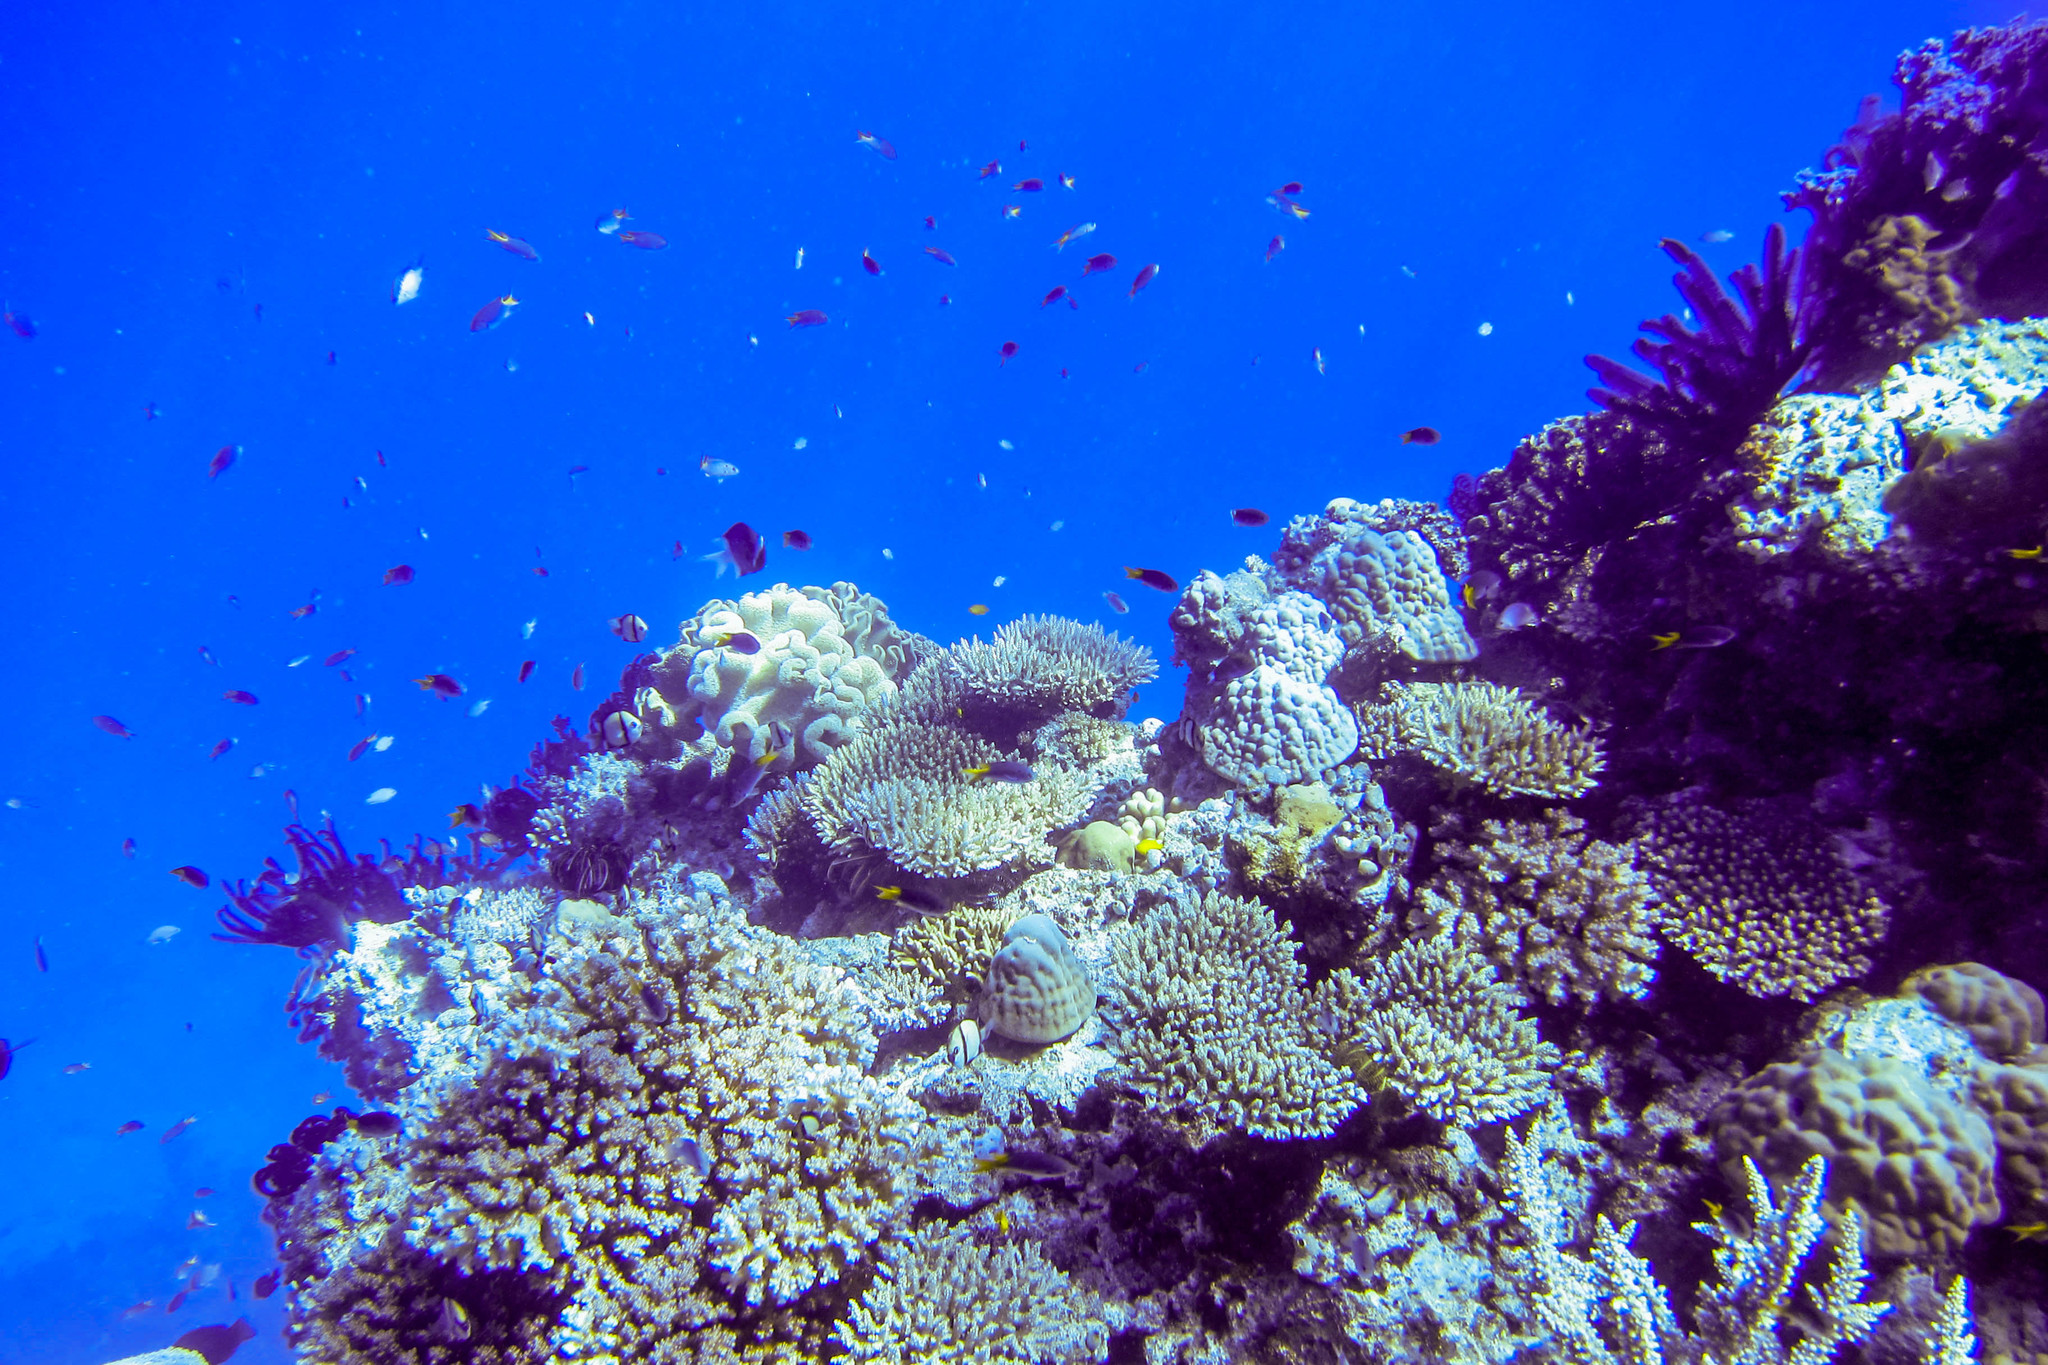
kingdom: Animalia
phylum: Chordata
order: Perciformes
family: Pomacentridae
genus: Dascyllus
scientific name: Dascyllus reticulatus
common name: Reticulated dascyllus
